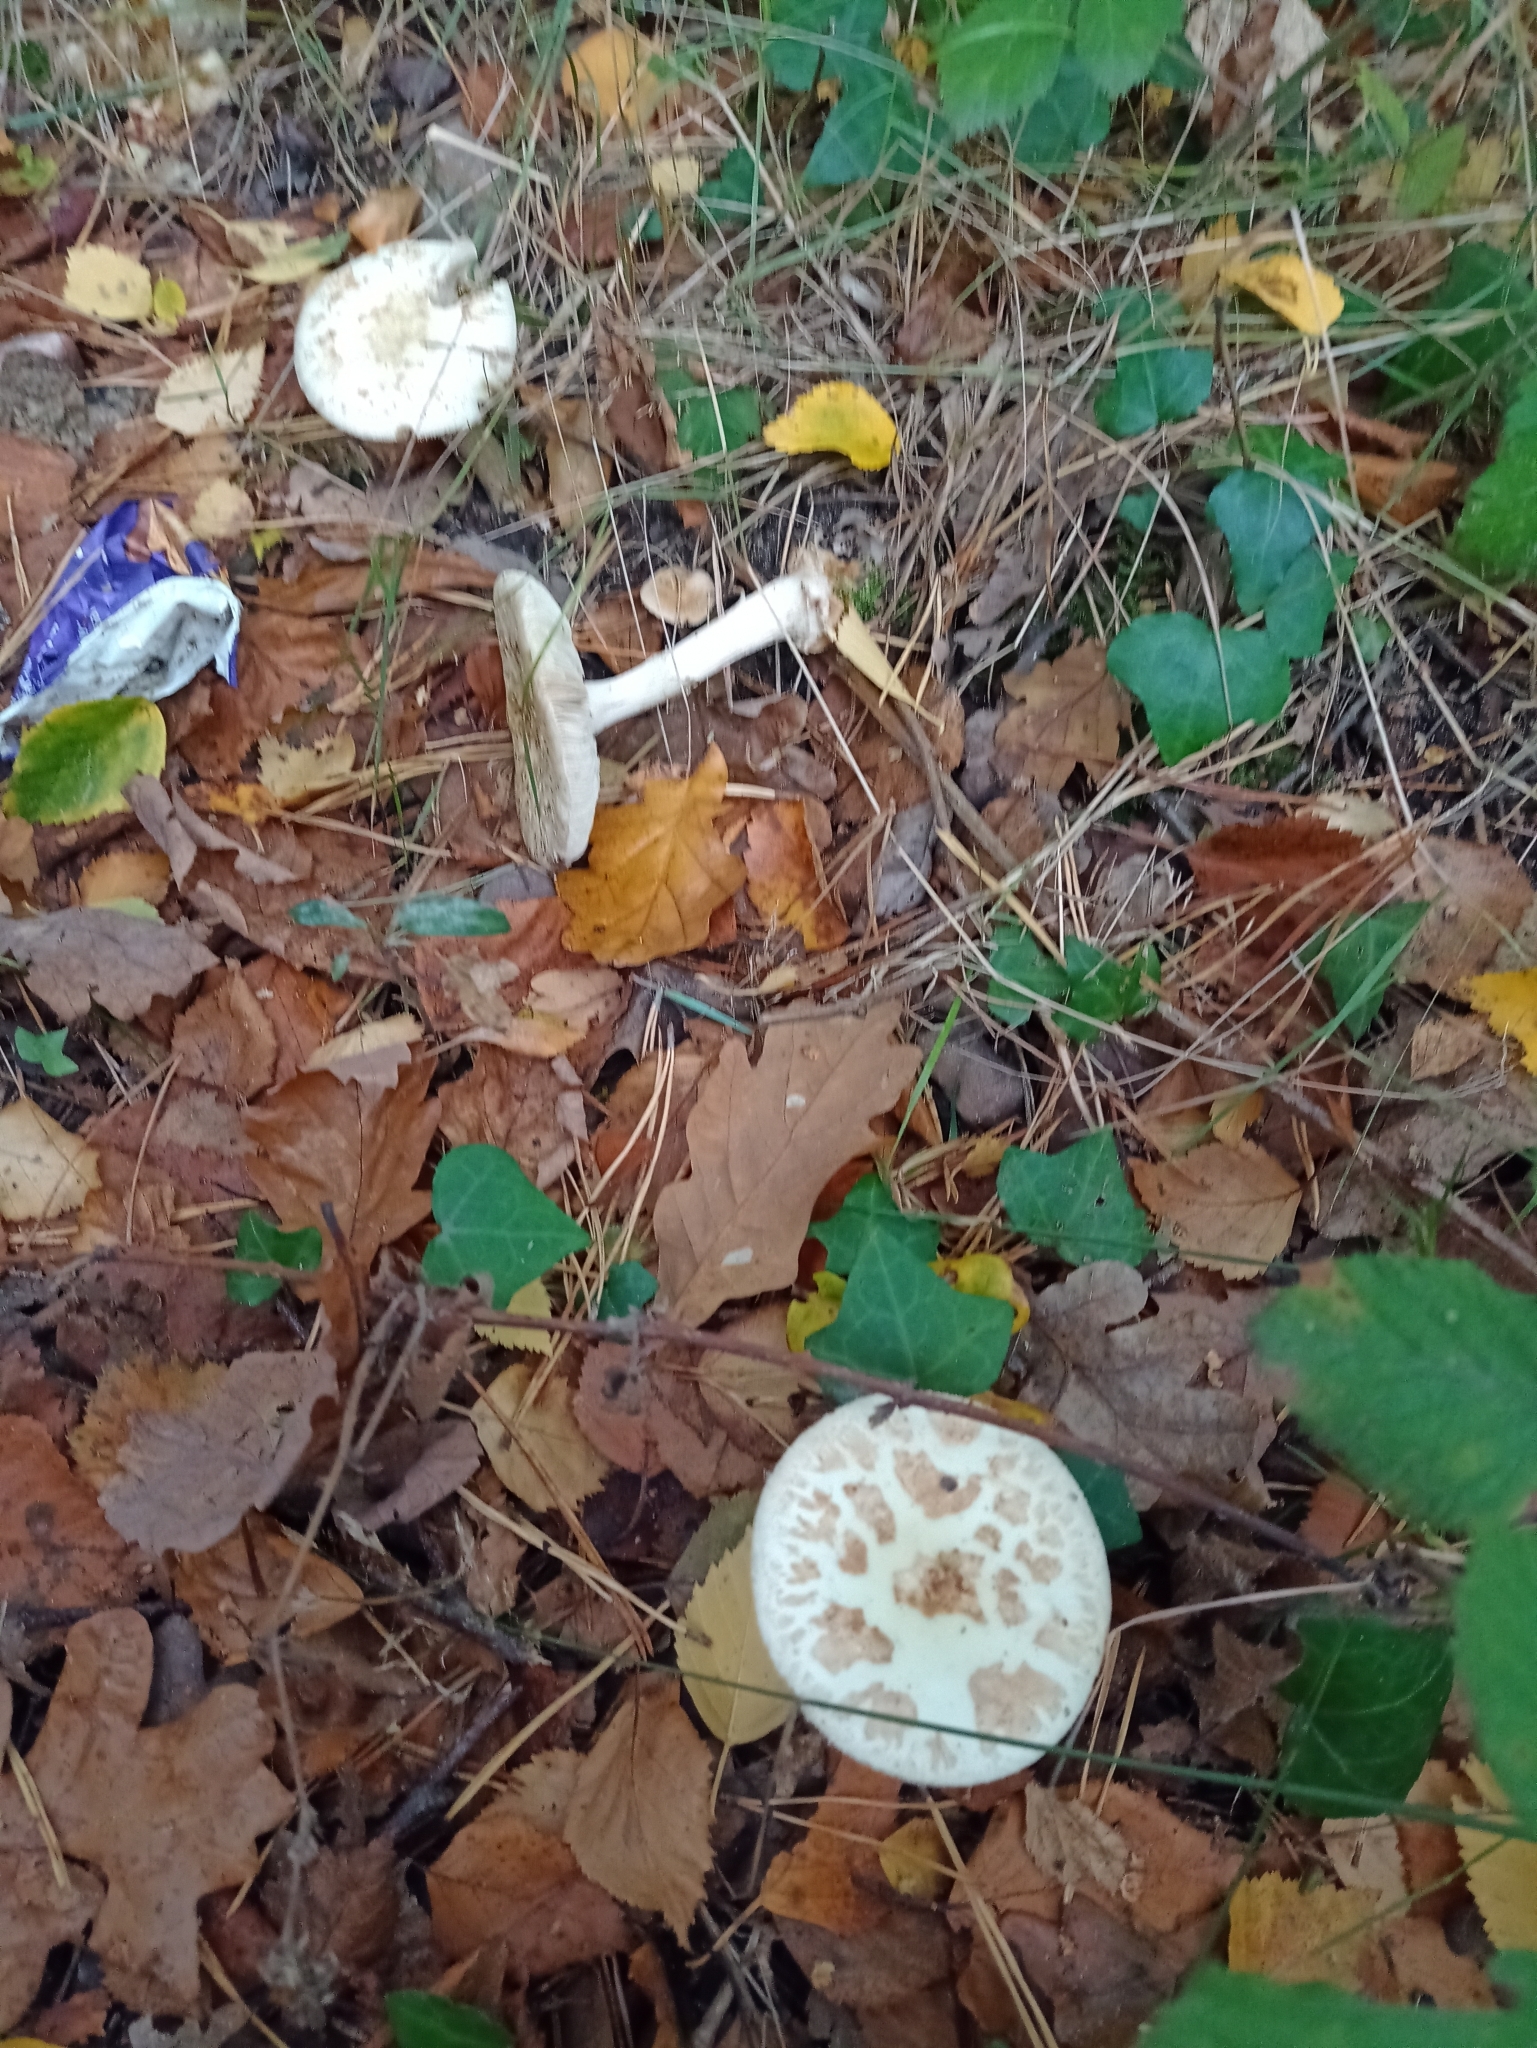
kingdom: Fungi
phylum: Basidiomycota
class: Agaricomycetes
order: Agaricales
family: Amanitaceae
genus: Amanita
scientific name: Amanita citrina
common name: False death-cap
